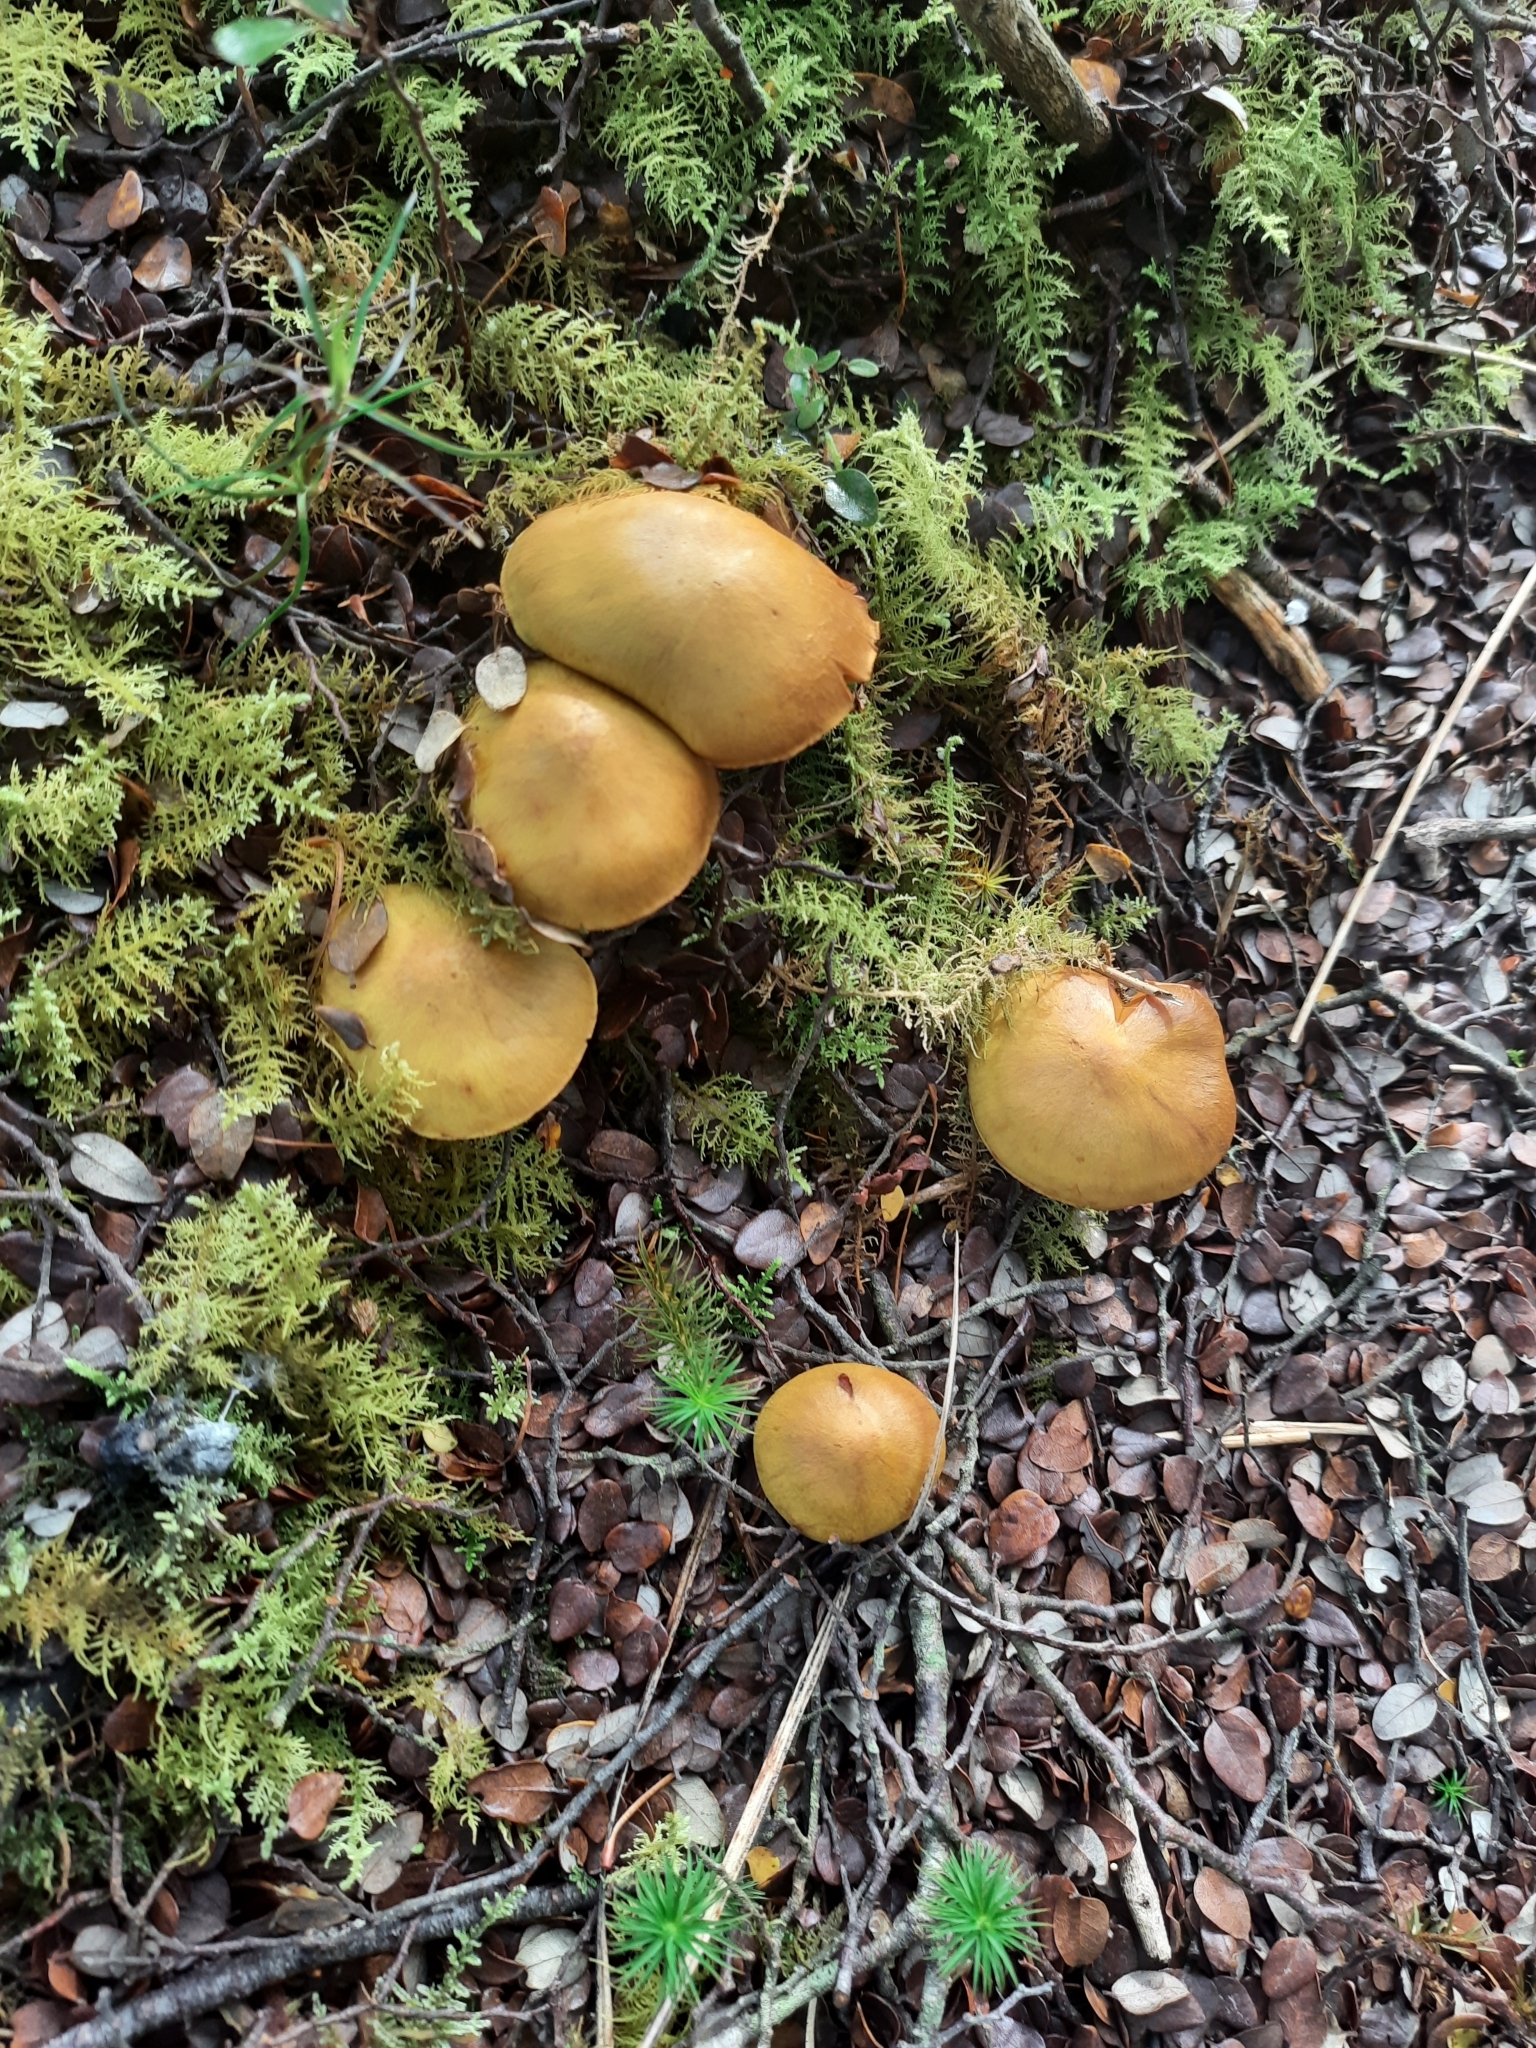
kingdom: Fungi
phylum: Basidiomycota
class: Agaricomycetes
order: Agaricales
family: Cortinariaceae
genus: Cortinarius
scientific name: Cortinarius canarius
